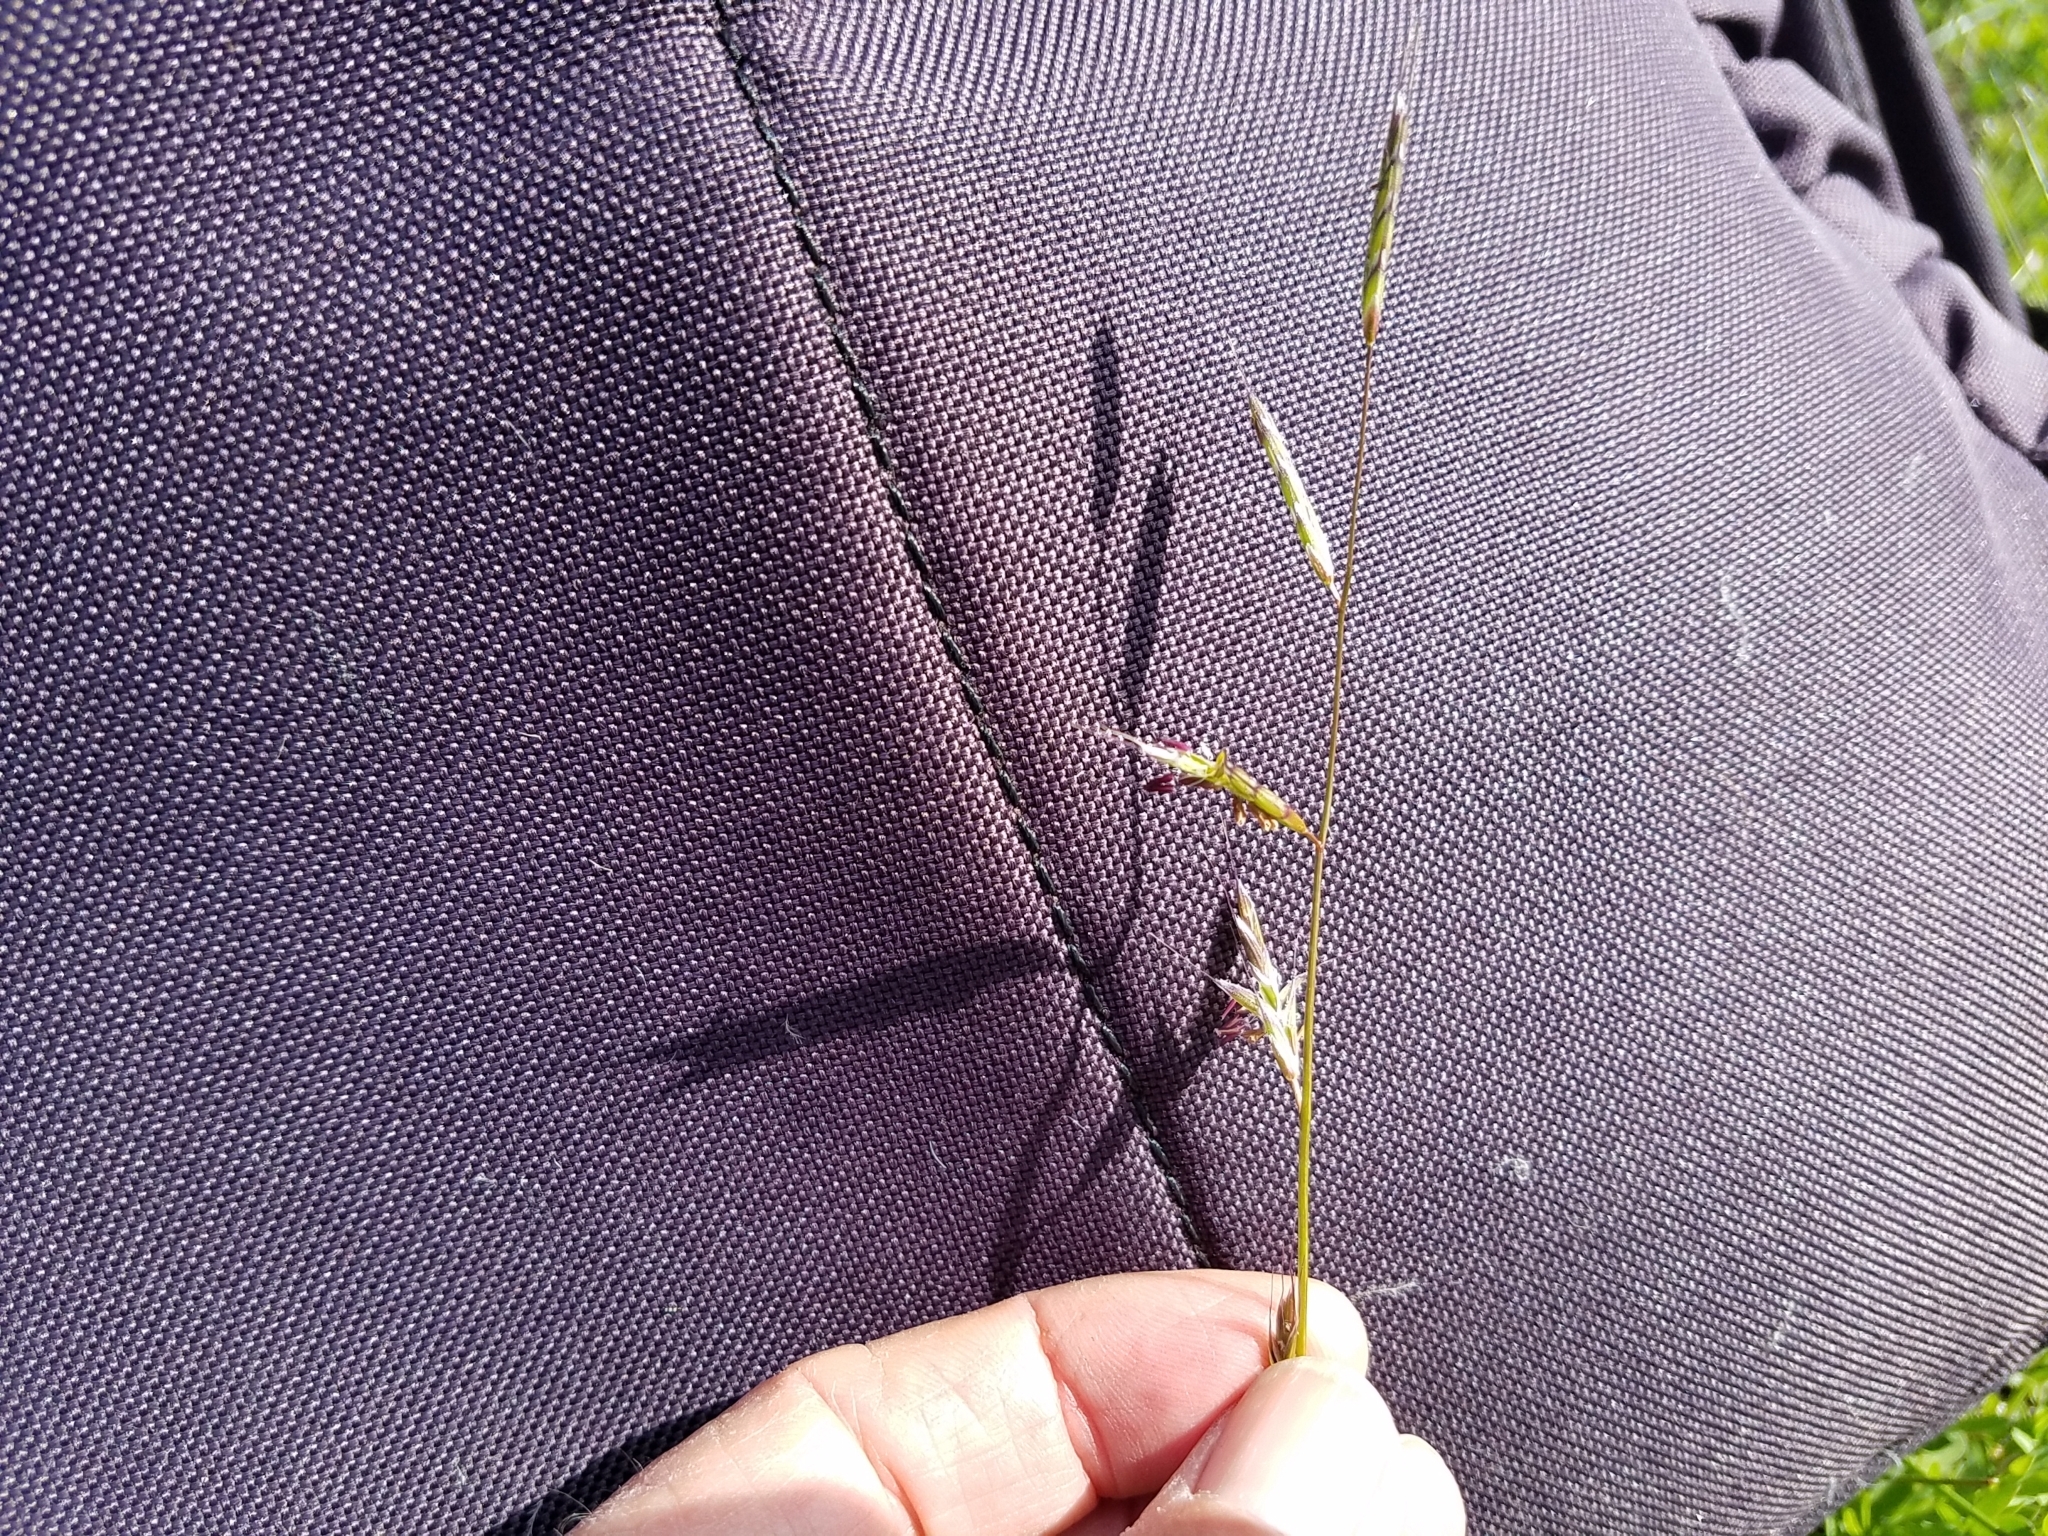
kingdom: Plantae
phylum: Tracheophyta
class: Liliopsida
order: Poales
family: Poaceae
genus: Pleuropogon
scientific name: Pleuropogon californicus
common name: California semaphore grass
